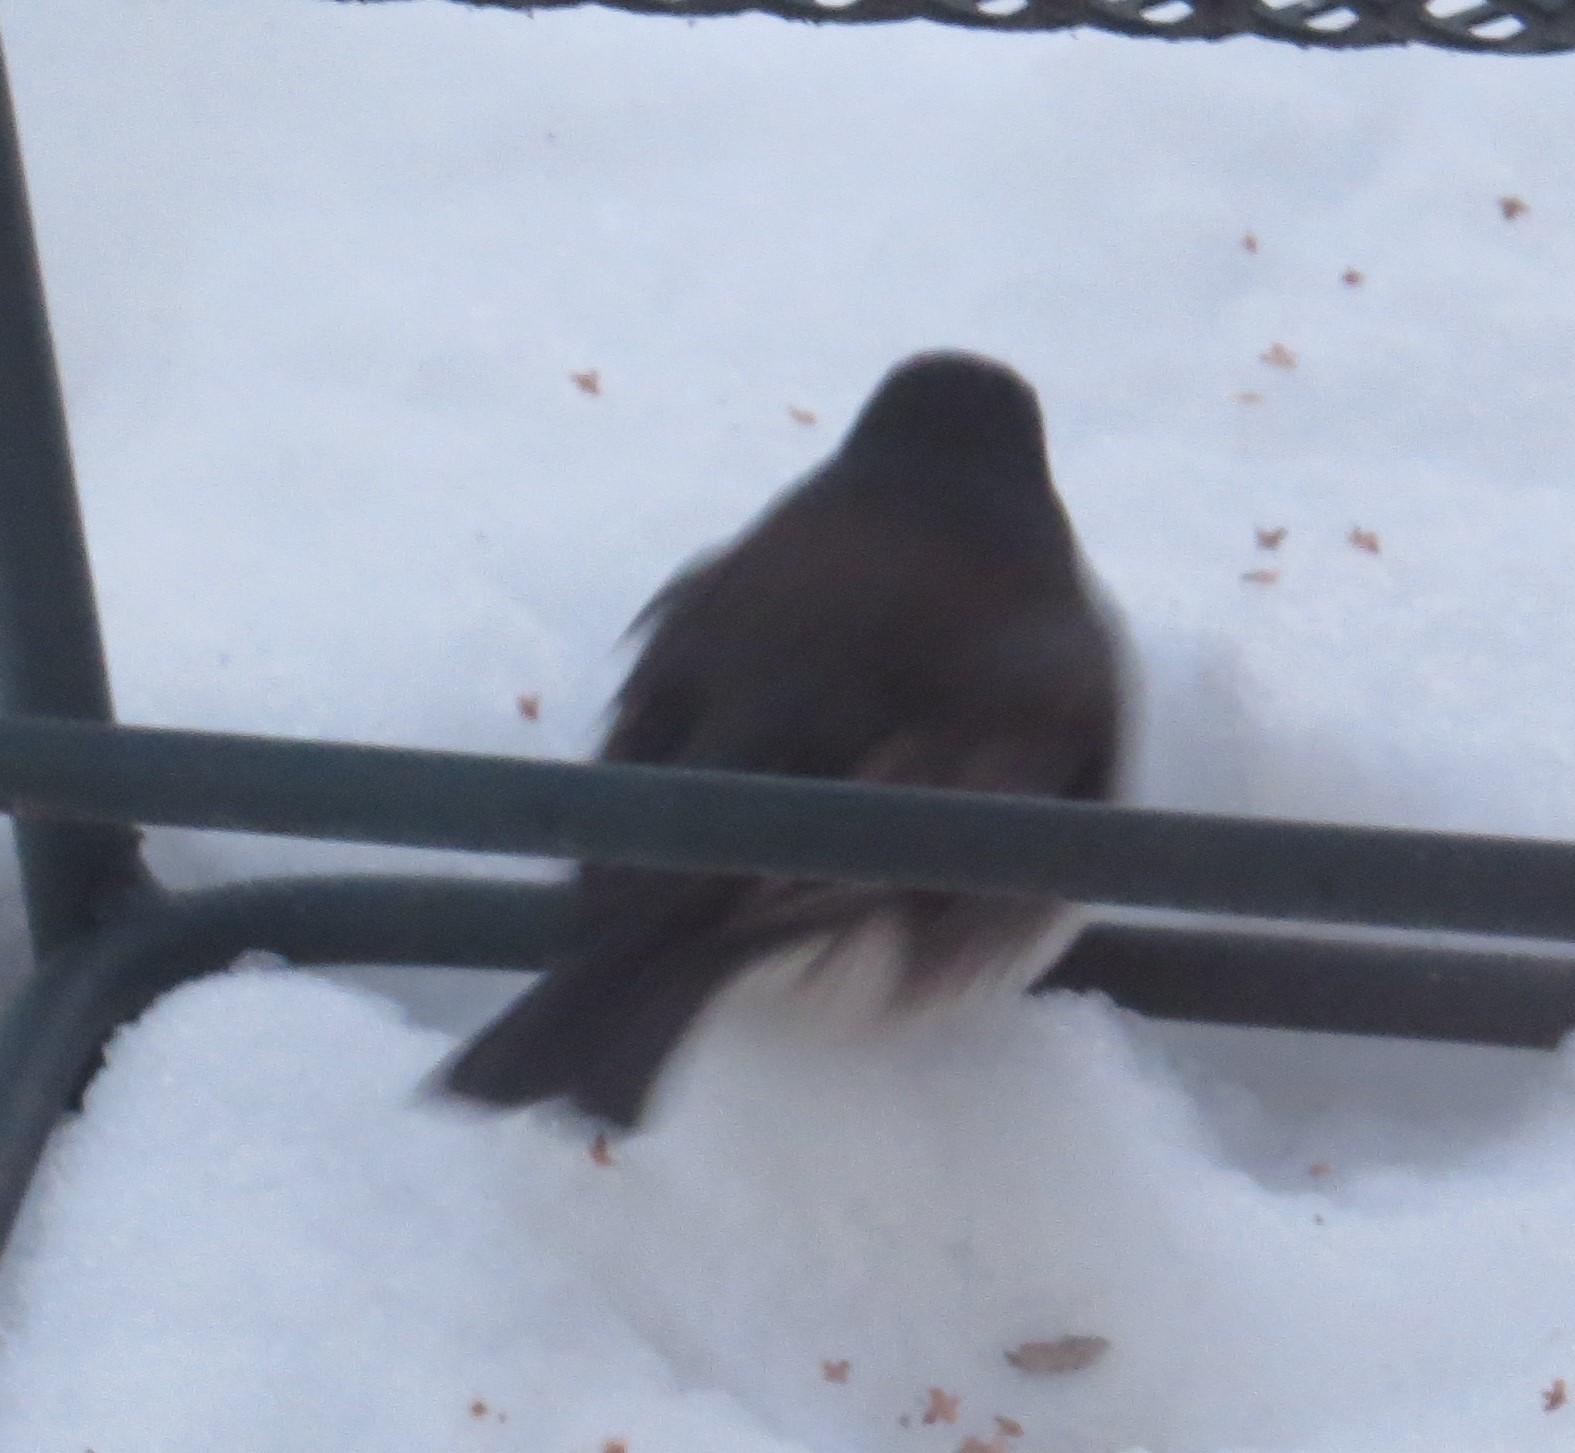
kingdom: Animalia
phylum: Chordata
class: Aves
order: Passeriformes
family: Passerellidae
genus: Junco
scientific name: Junco hyemalis
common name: Dark-eyed junco
